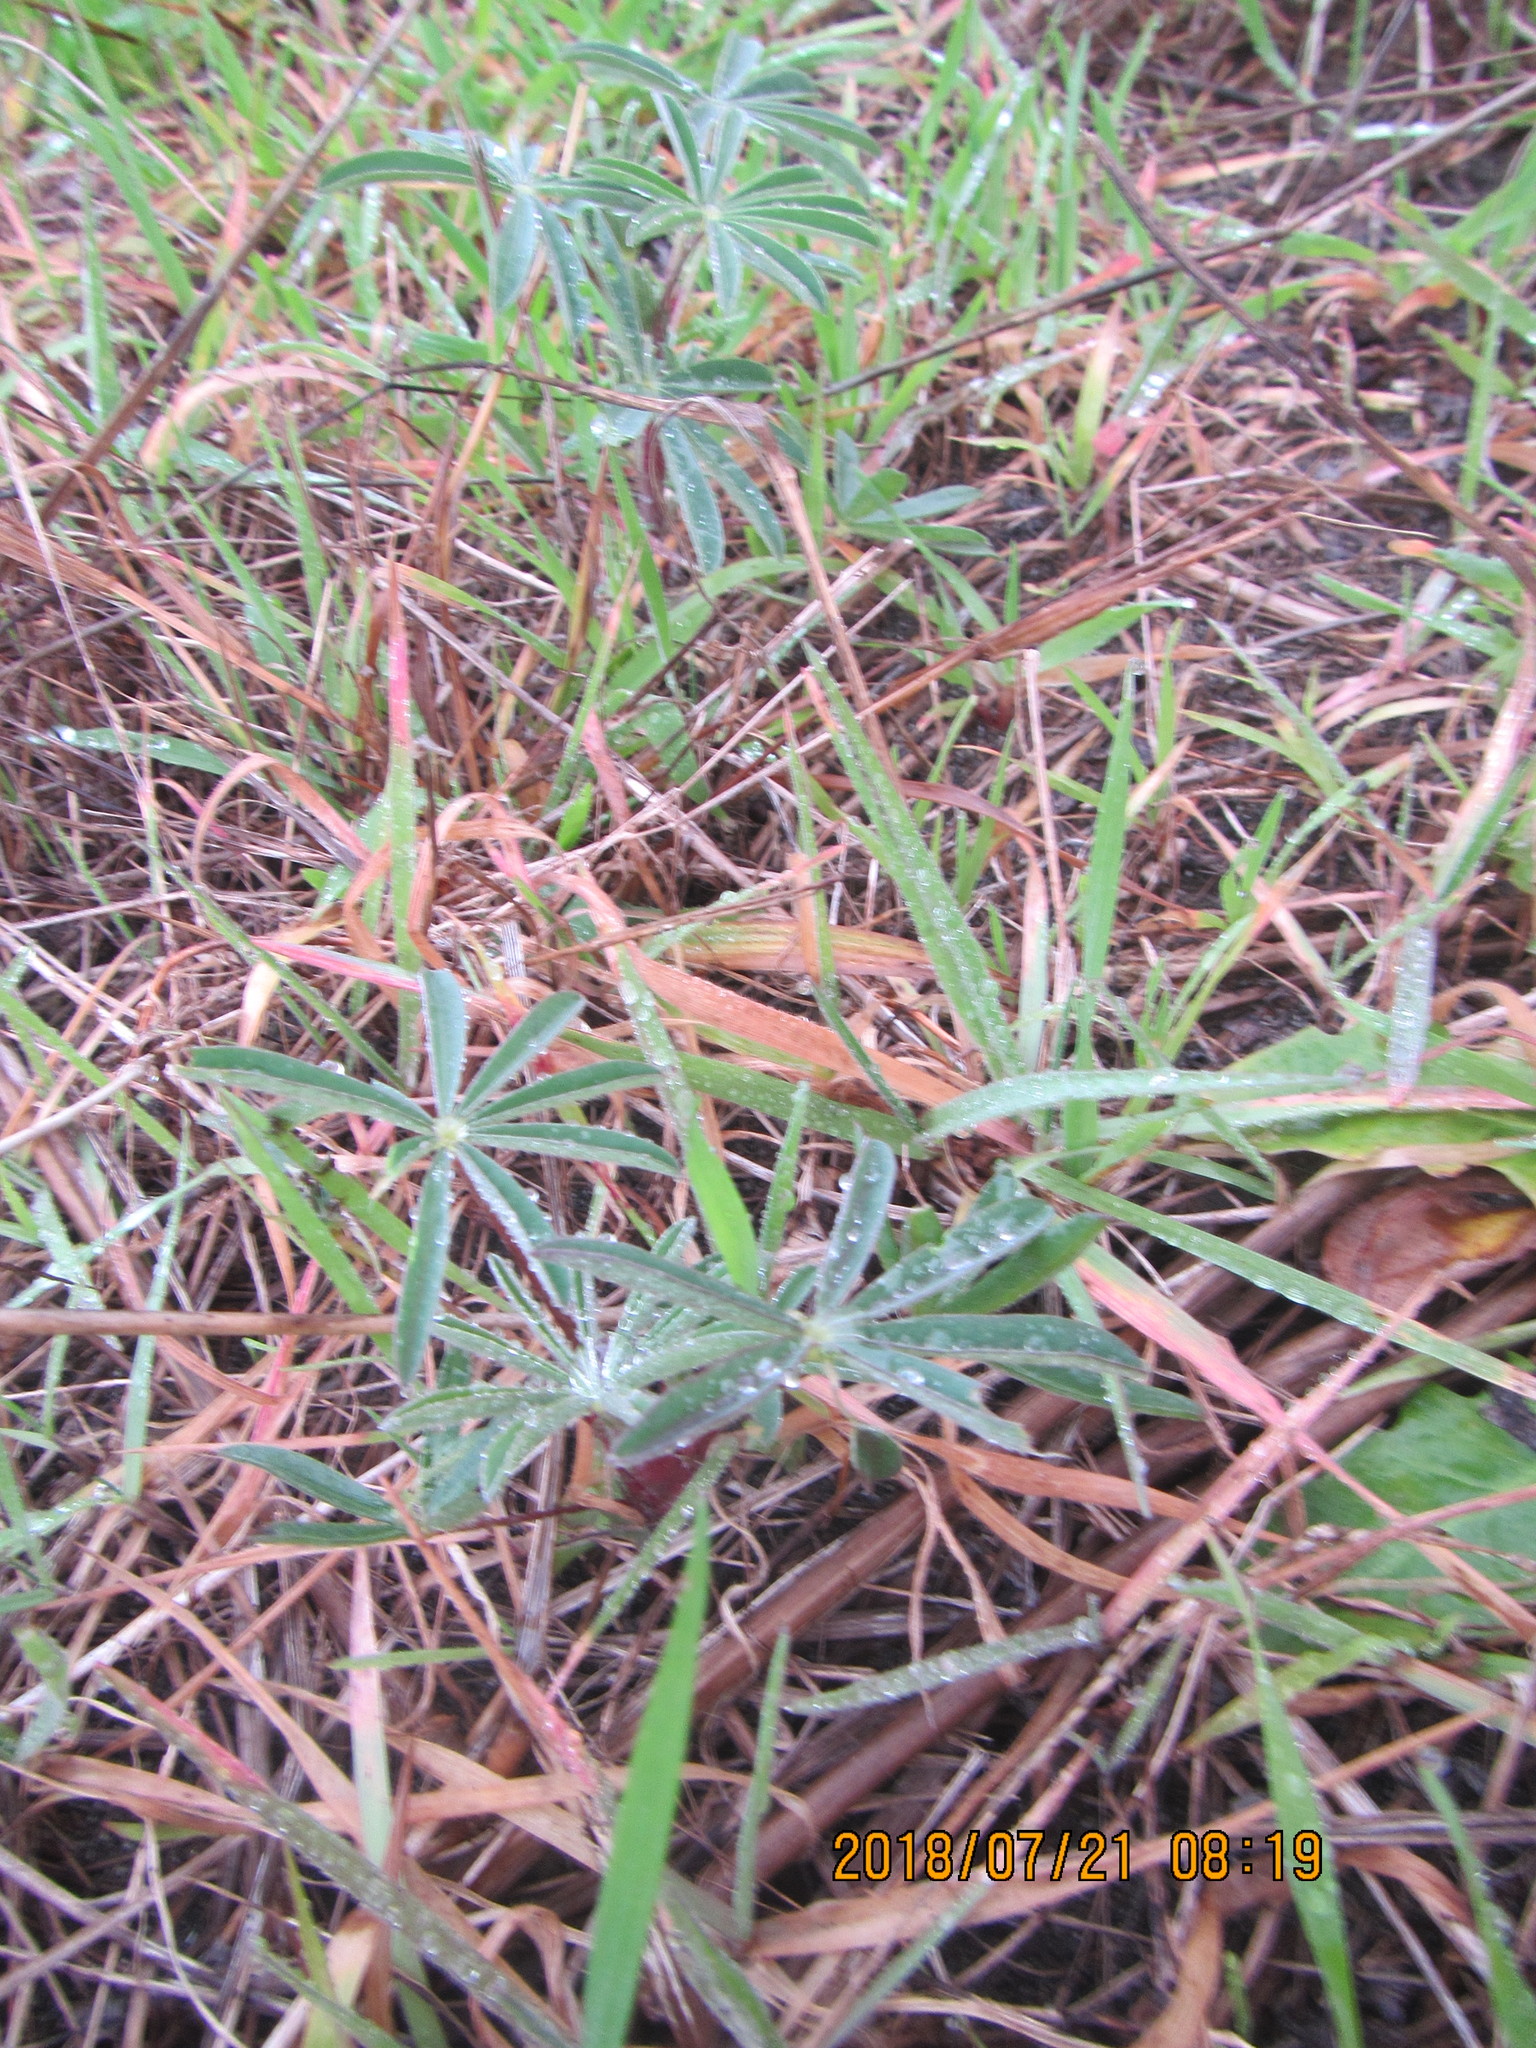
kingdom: Plantae
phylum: Tracheophyta
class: Magnoliopsida
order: Fabales
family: Fabaceae
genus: Lupinus
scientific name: Lupinus arboreus
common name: Yellow bush lupine
